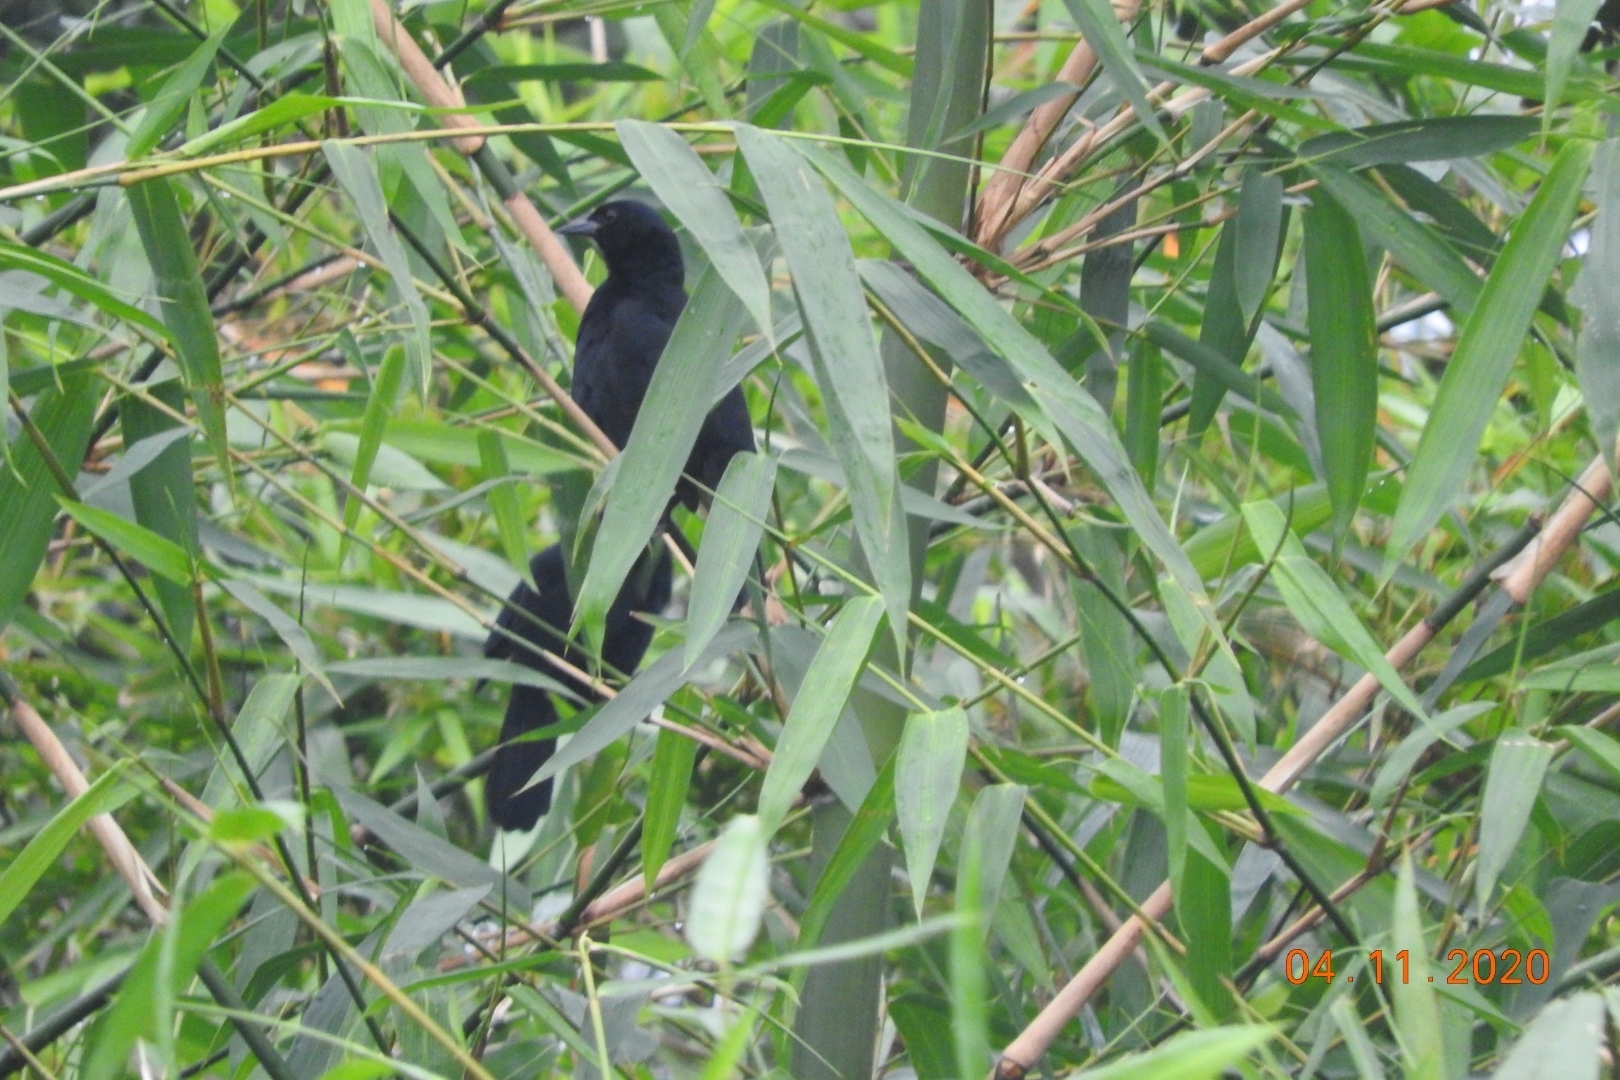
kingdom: Animalia
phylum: Chordata
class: Aves
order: Passeriformes
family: Icteridae
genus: Dives
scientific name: Dives dives
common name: Melodious blackbird
